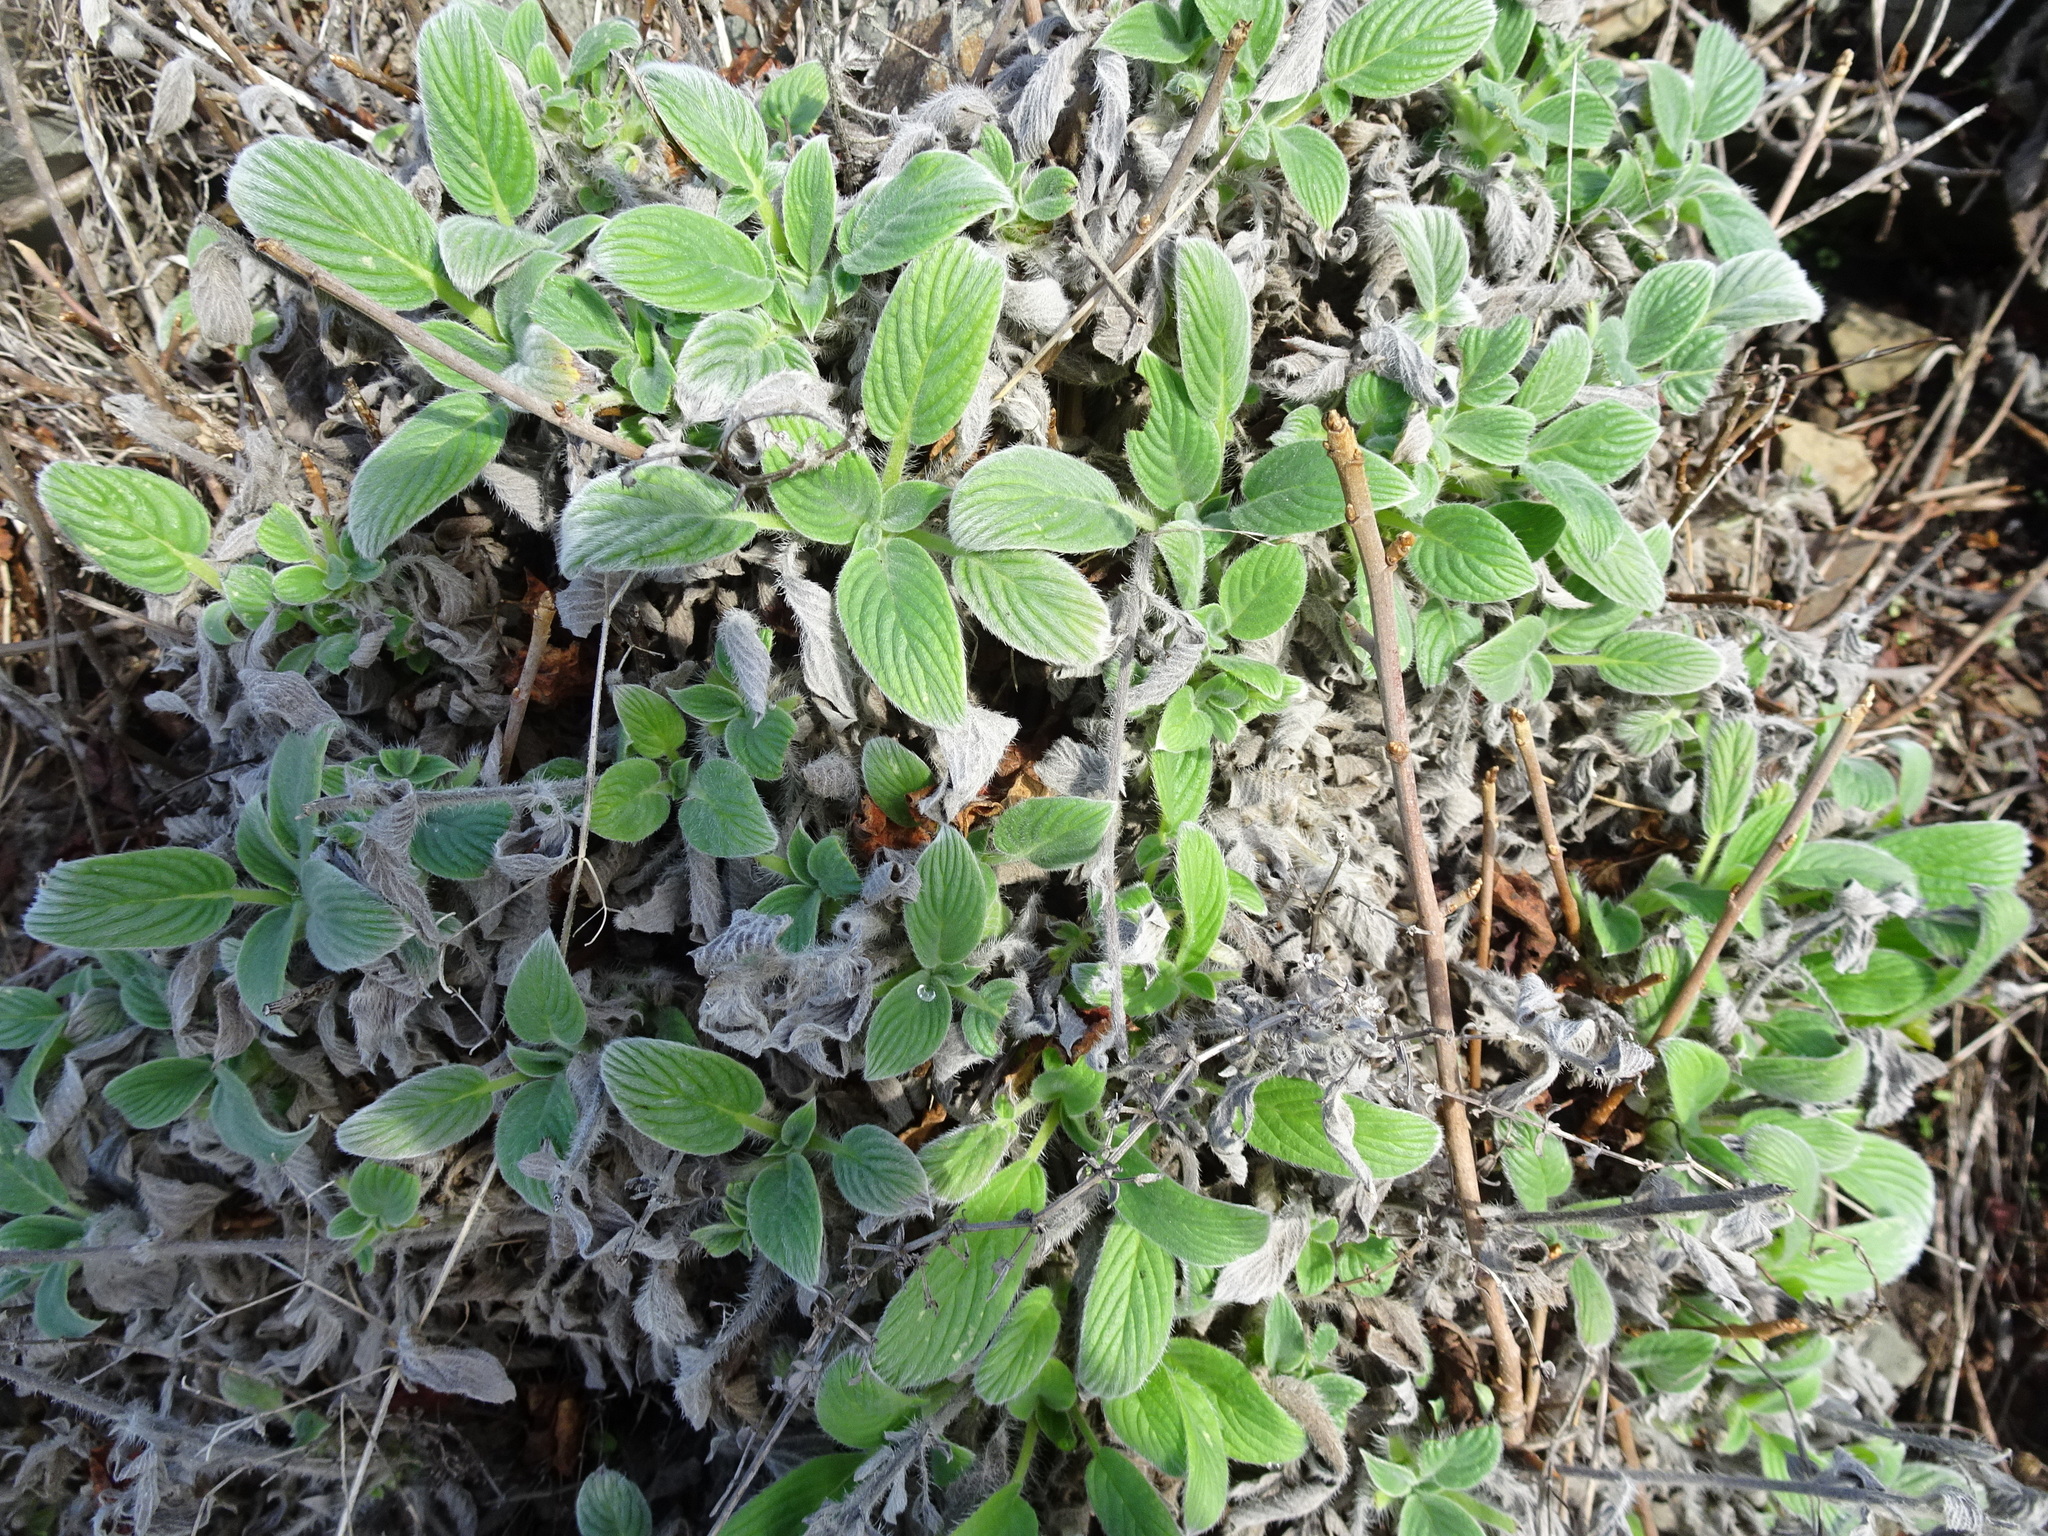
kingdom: Plantae
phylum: Tracheophyta
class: Magnoliopsida
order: Boraginales
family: Hydrophyllaceae
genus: Phacelia
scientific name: Phacelia californica
